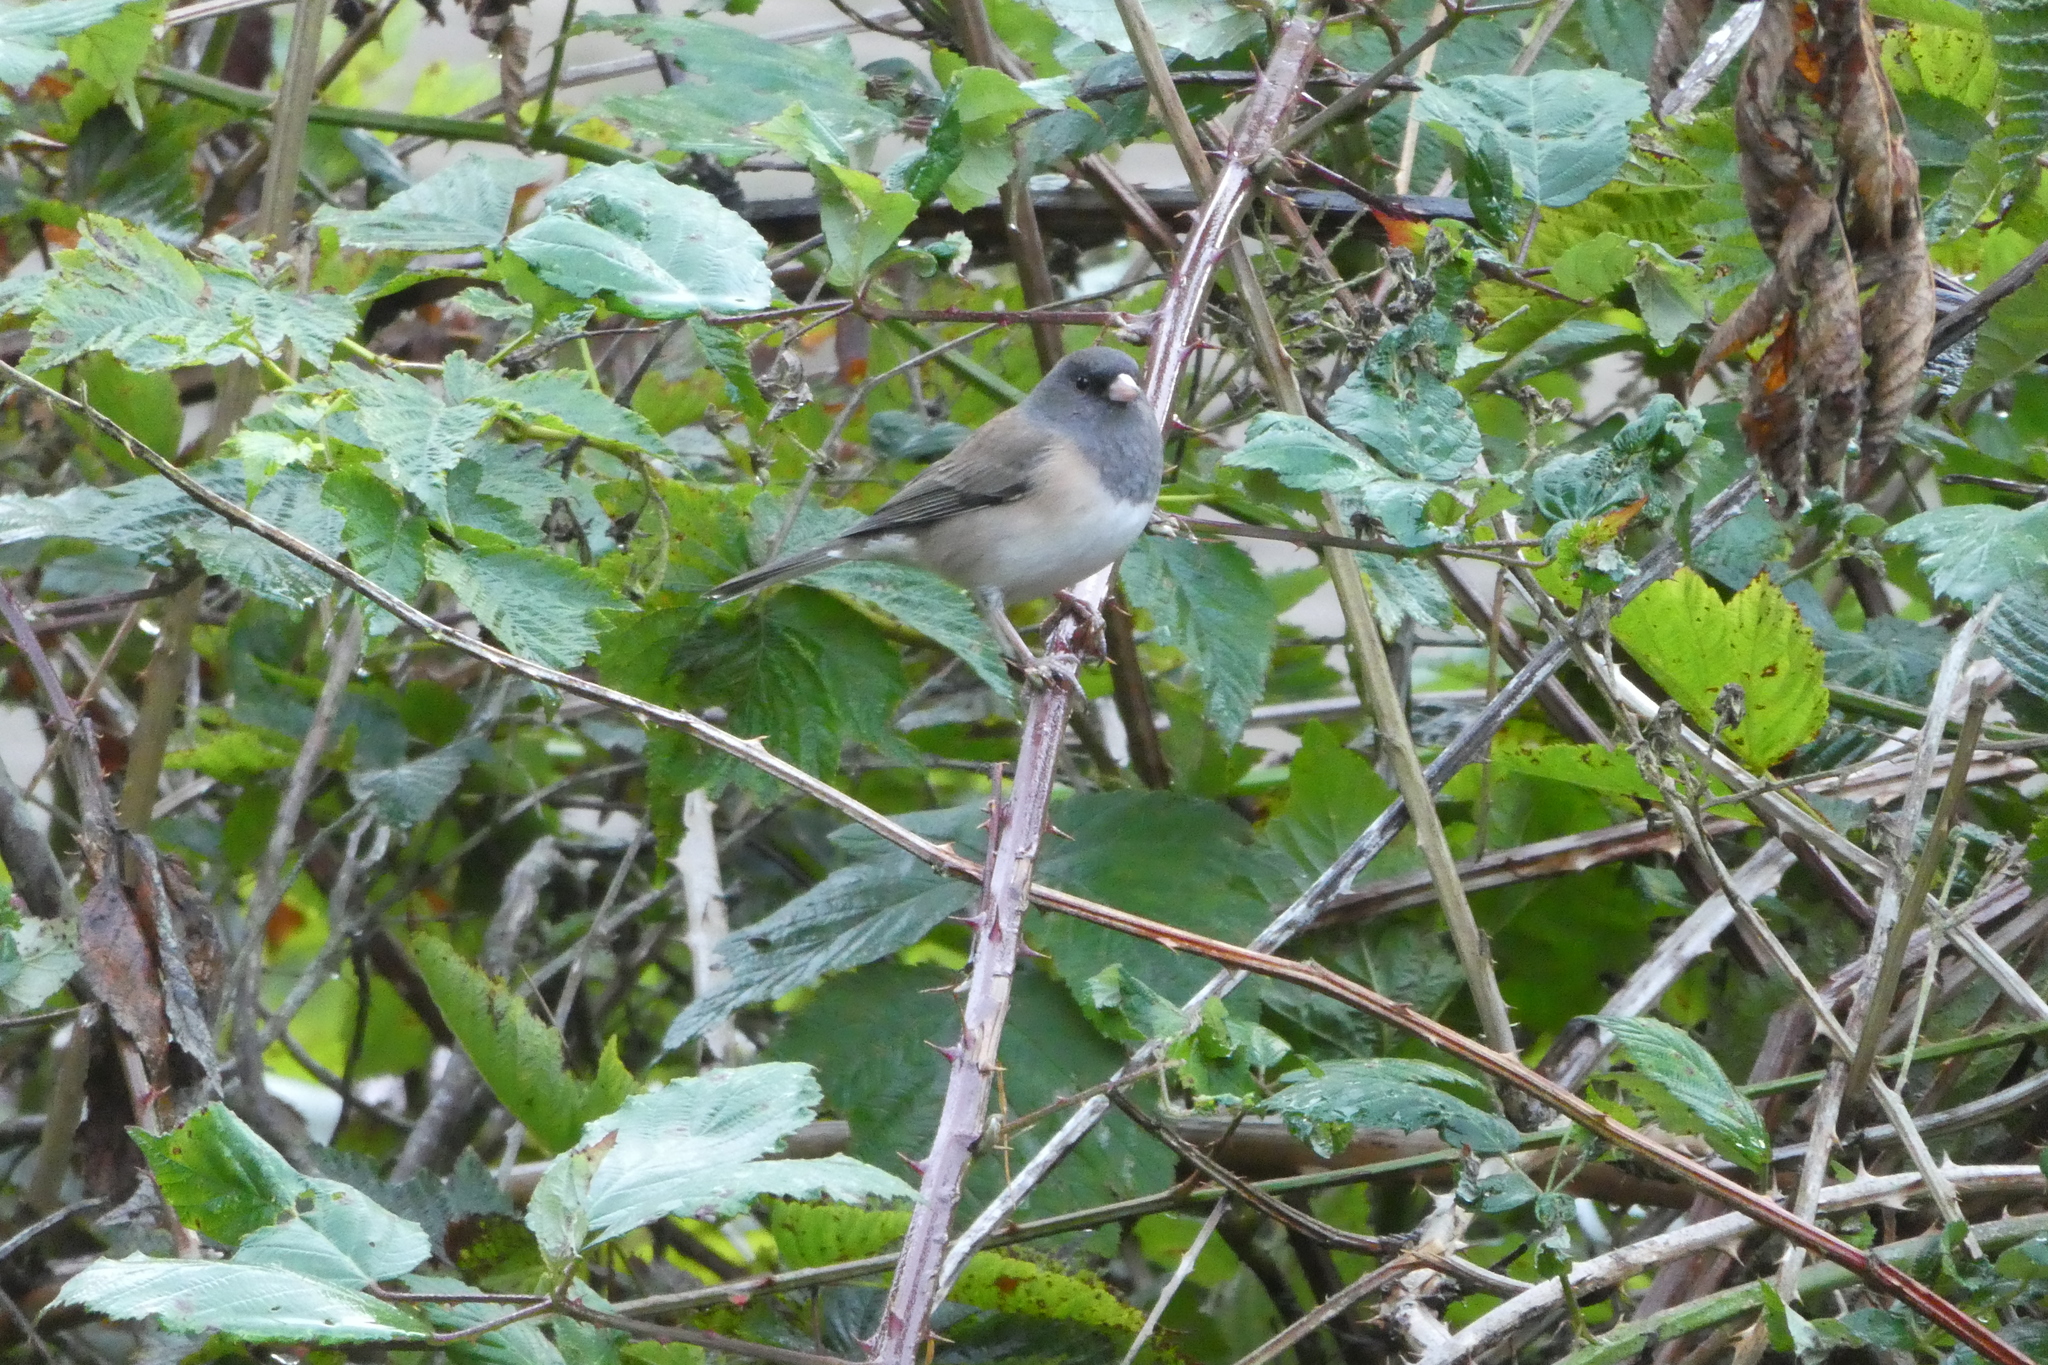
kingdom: Animalia
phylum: Chordata
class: Aves
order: Passeriformes
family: Passerellidae
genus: Junco
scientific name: Junco hyemalis
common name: Dark-eyed junco
